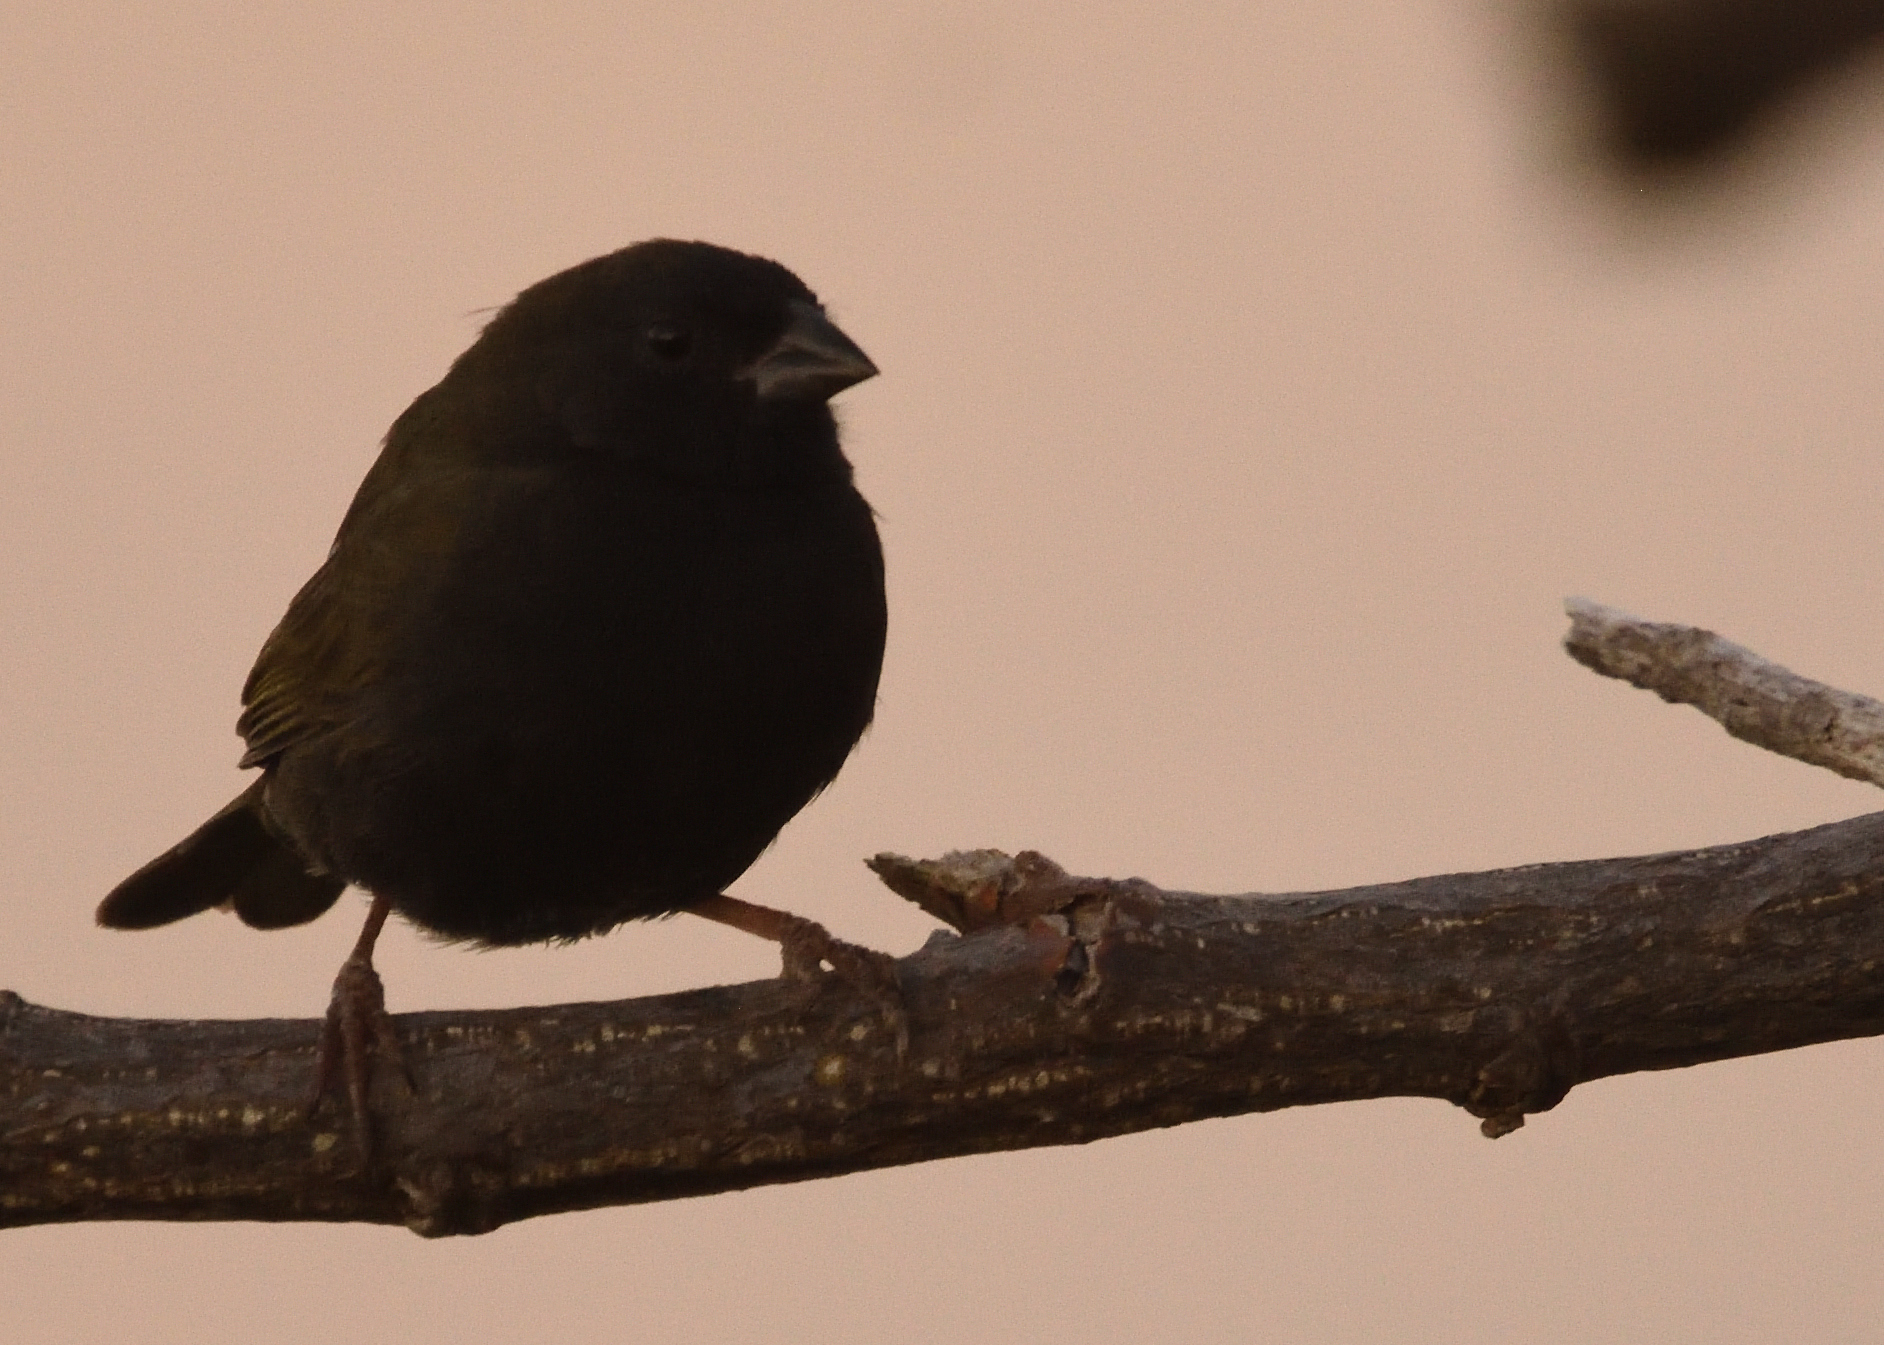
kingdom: Animalia
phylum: Chordata
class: Aves
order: Passeriformes
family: Thraupidae
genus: Melanospiza
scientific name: Melanospiza bicolor
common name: Black-faced grassquit
